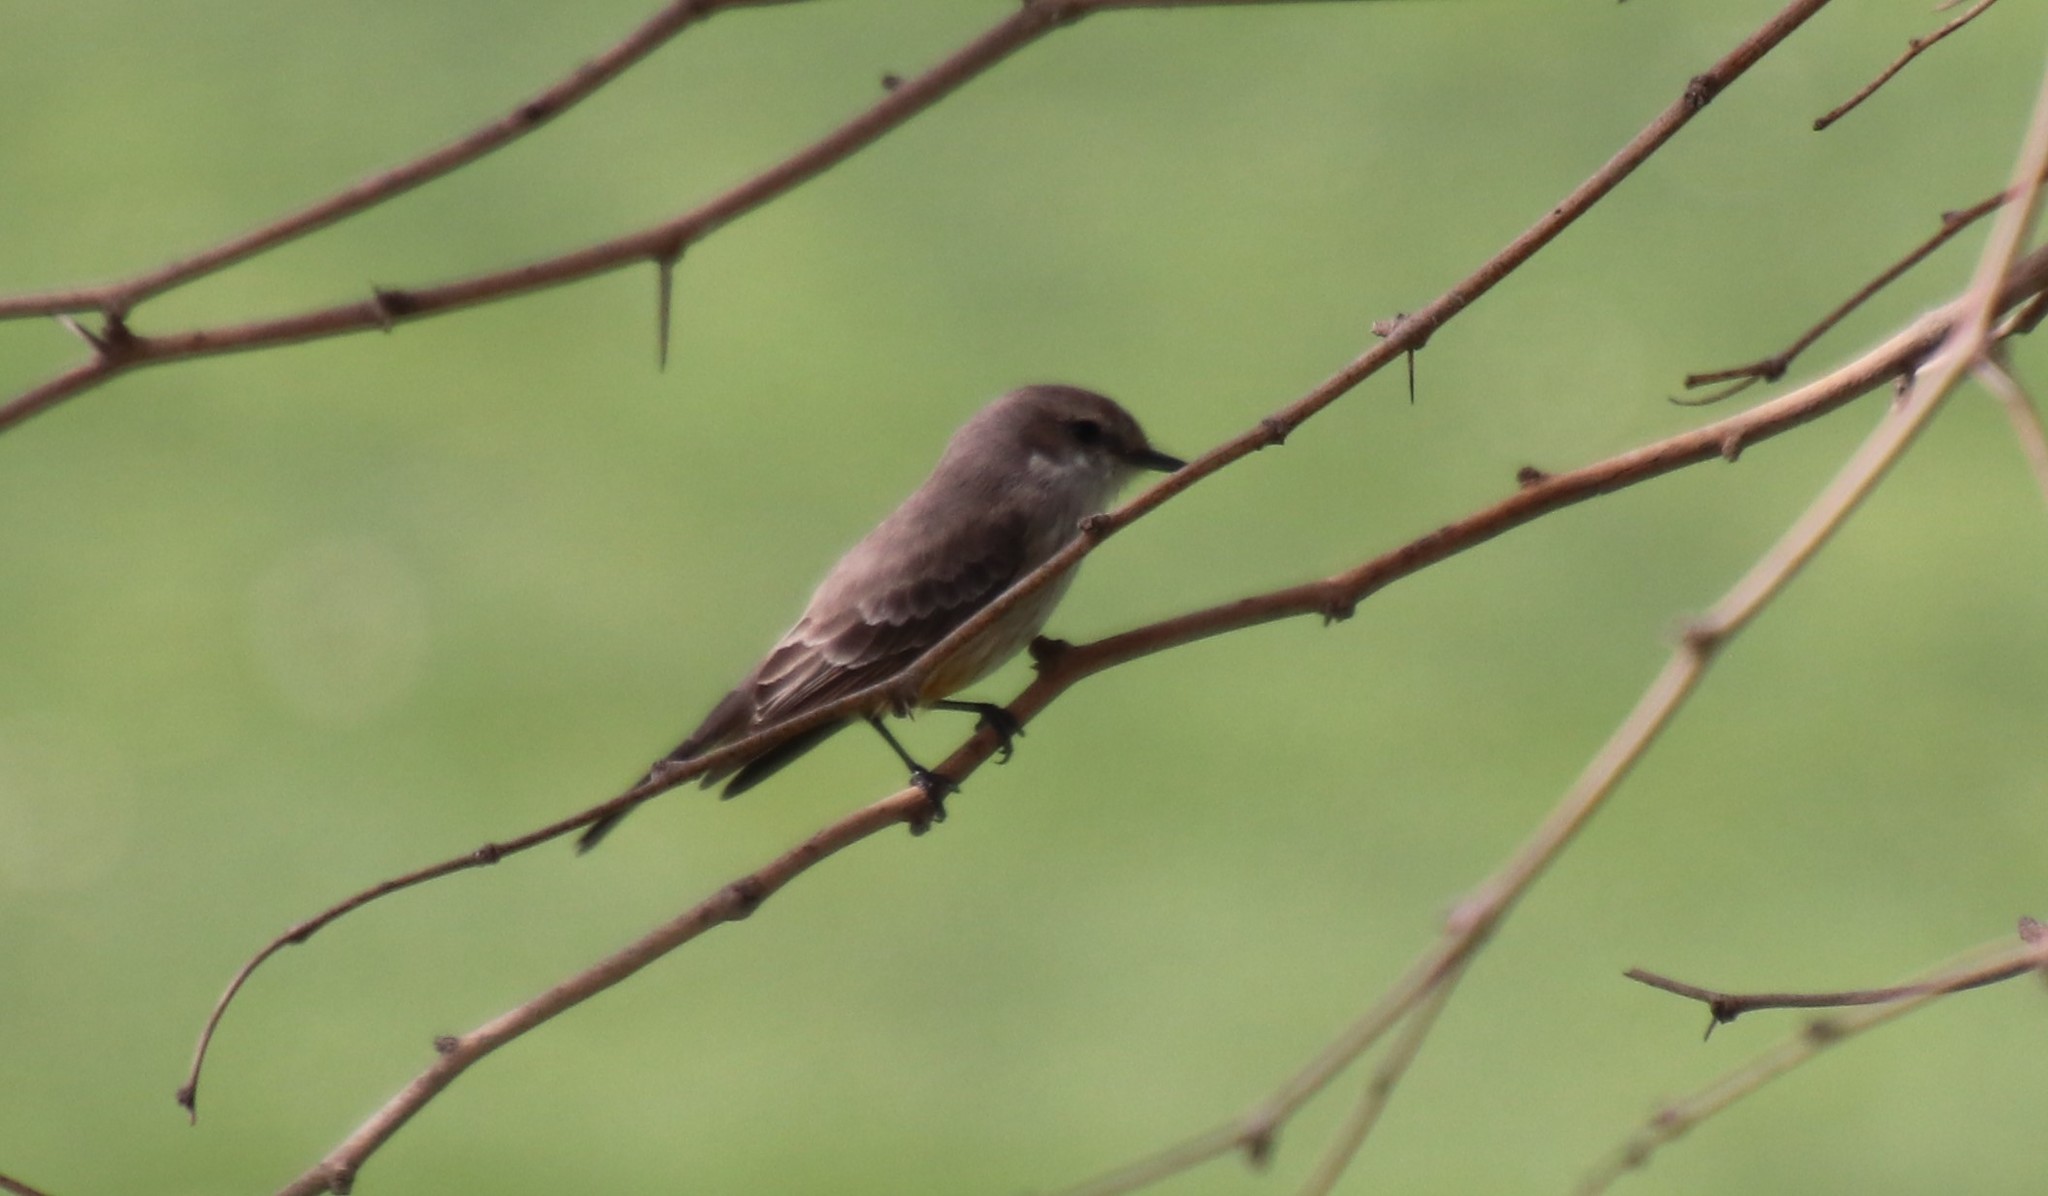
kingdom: Animalia
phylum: Chordata
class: Aves
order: Passeriformes
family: Tyrannidae
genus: Pyrocephalus
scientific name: Pyrocephalus rubinus
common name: Vermilion flycatcher
